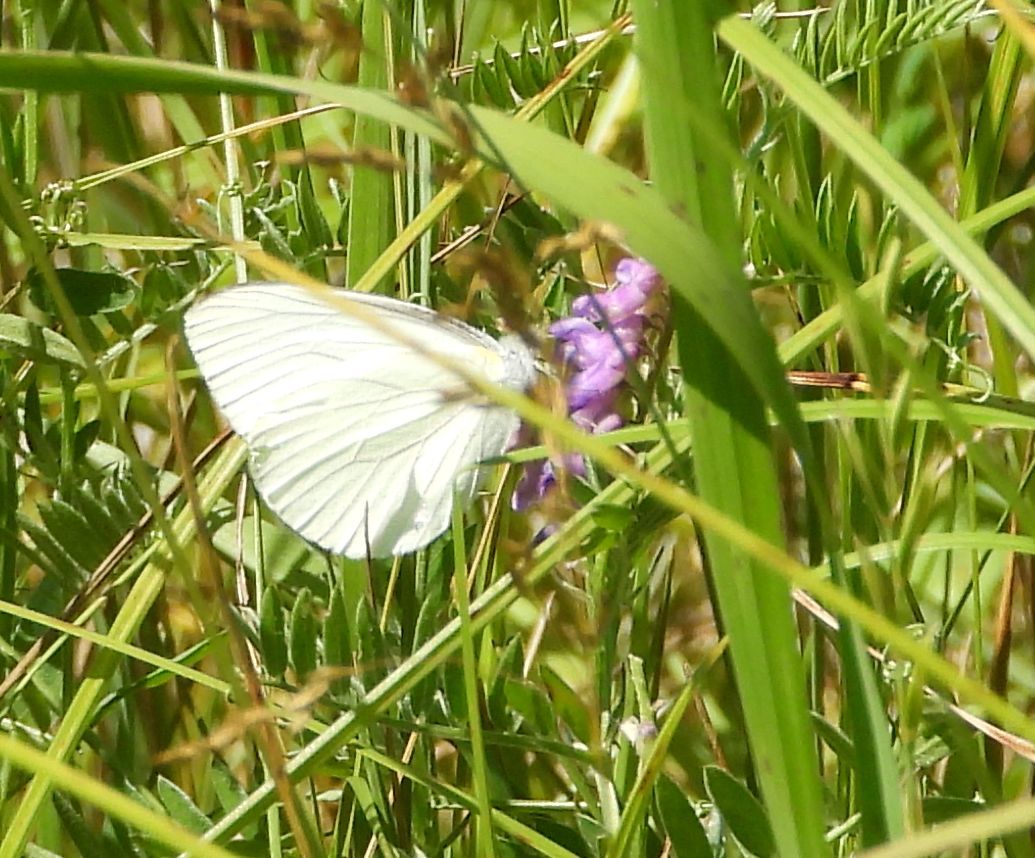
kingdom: Animalia
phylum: Arthropoda
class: Insecta
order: Lepidoptera
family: Pieridae
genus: Pieris
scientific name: Pieris oleracea
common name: Mustard white
